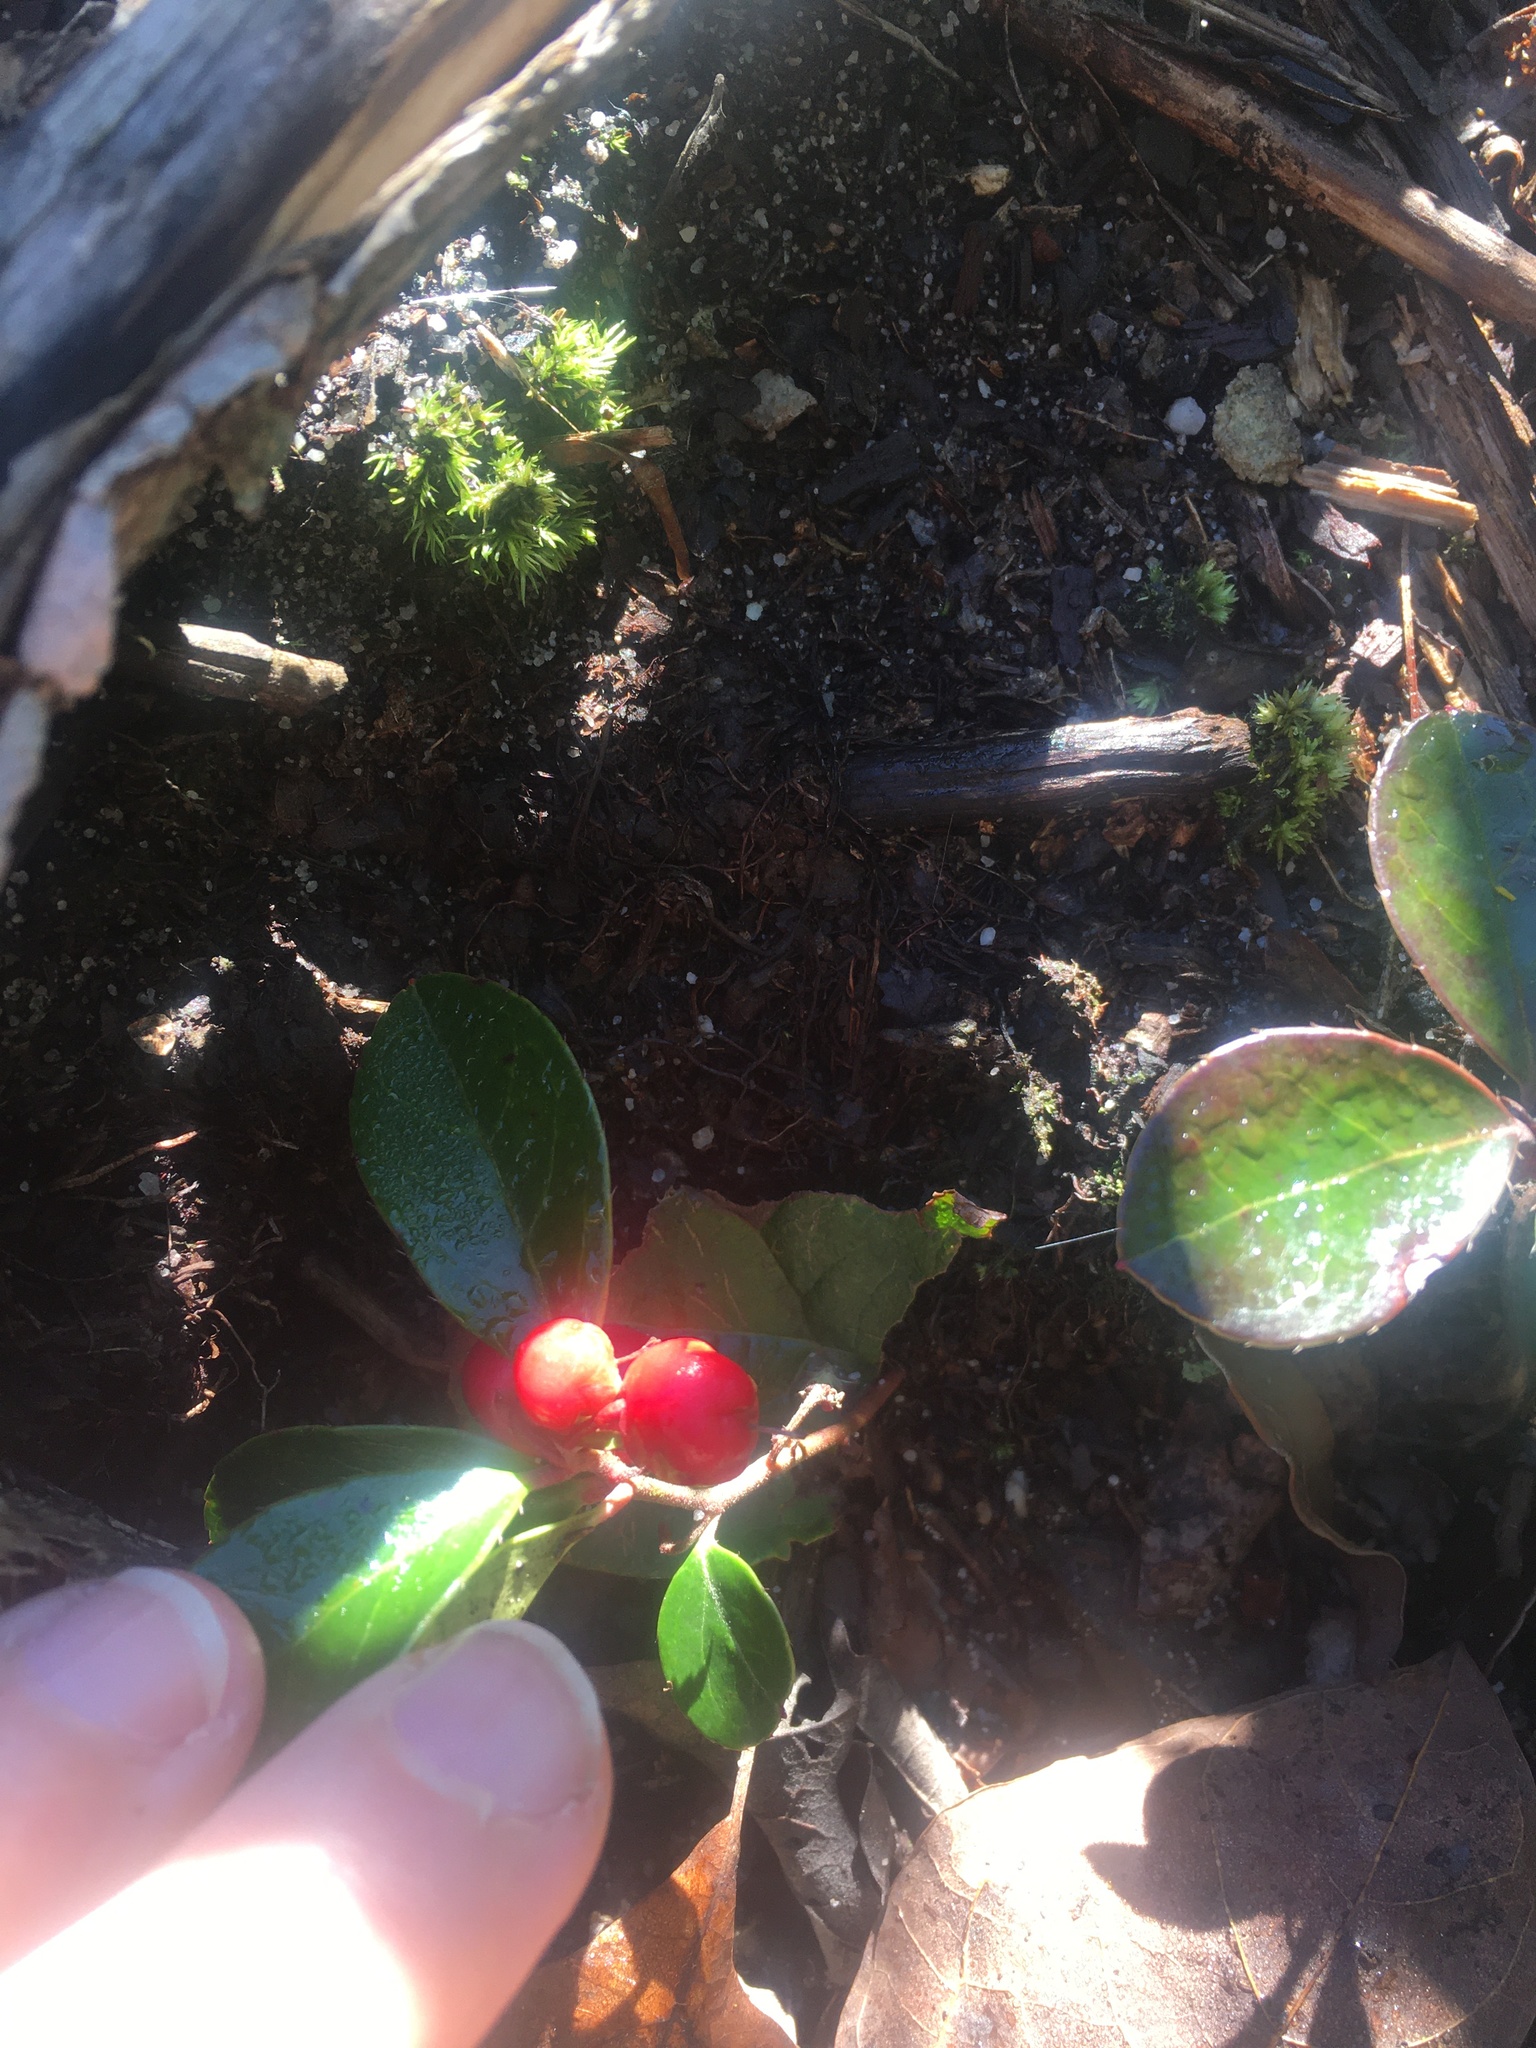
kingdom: Plantae
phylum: Tracheophyta
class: Magnoliopsida
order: Ericales
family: Ericaceae
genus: Gaultheria
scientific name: Gaultheria procumbens
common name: Checkerberry
